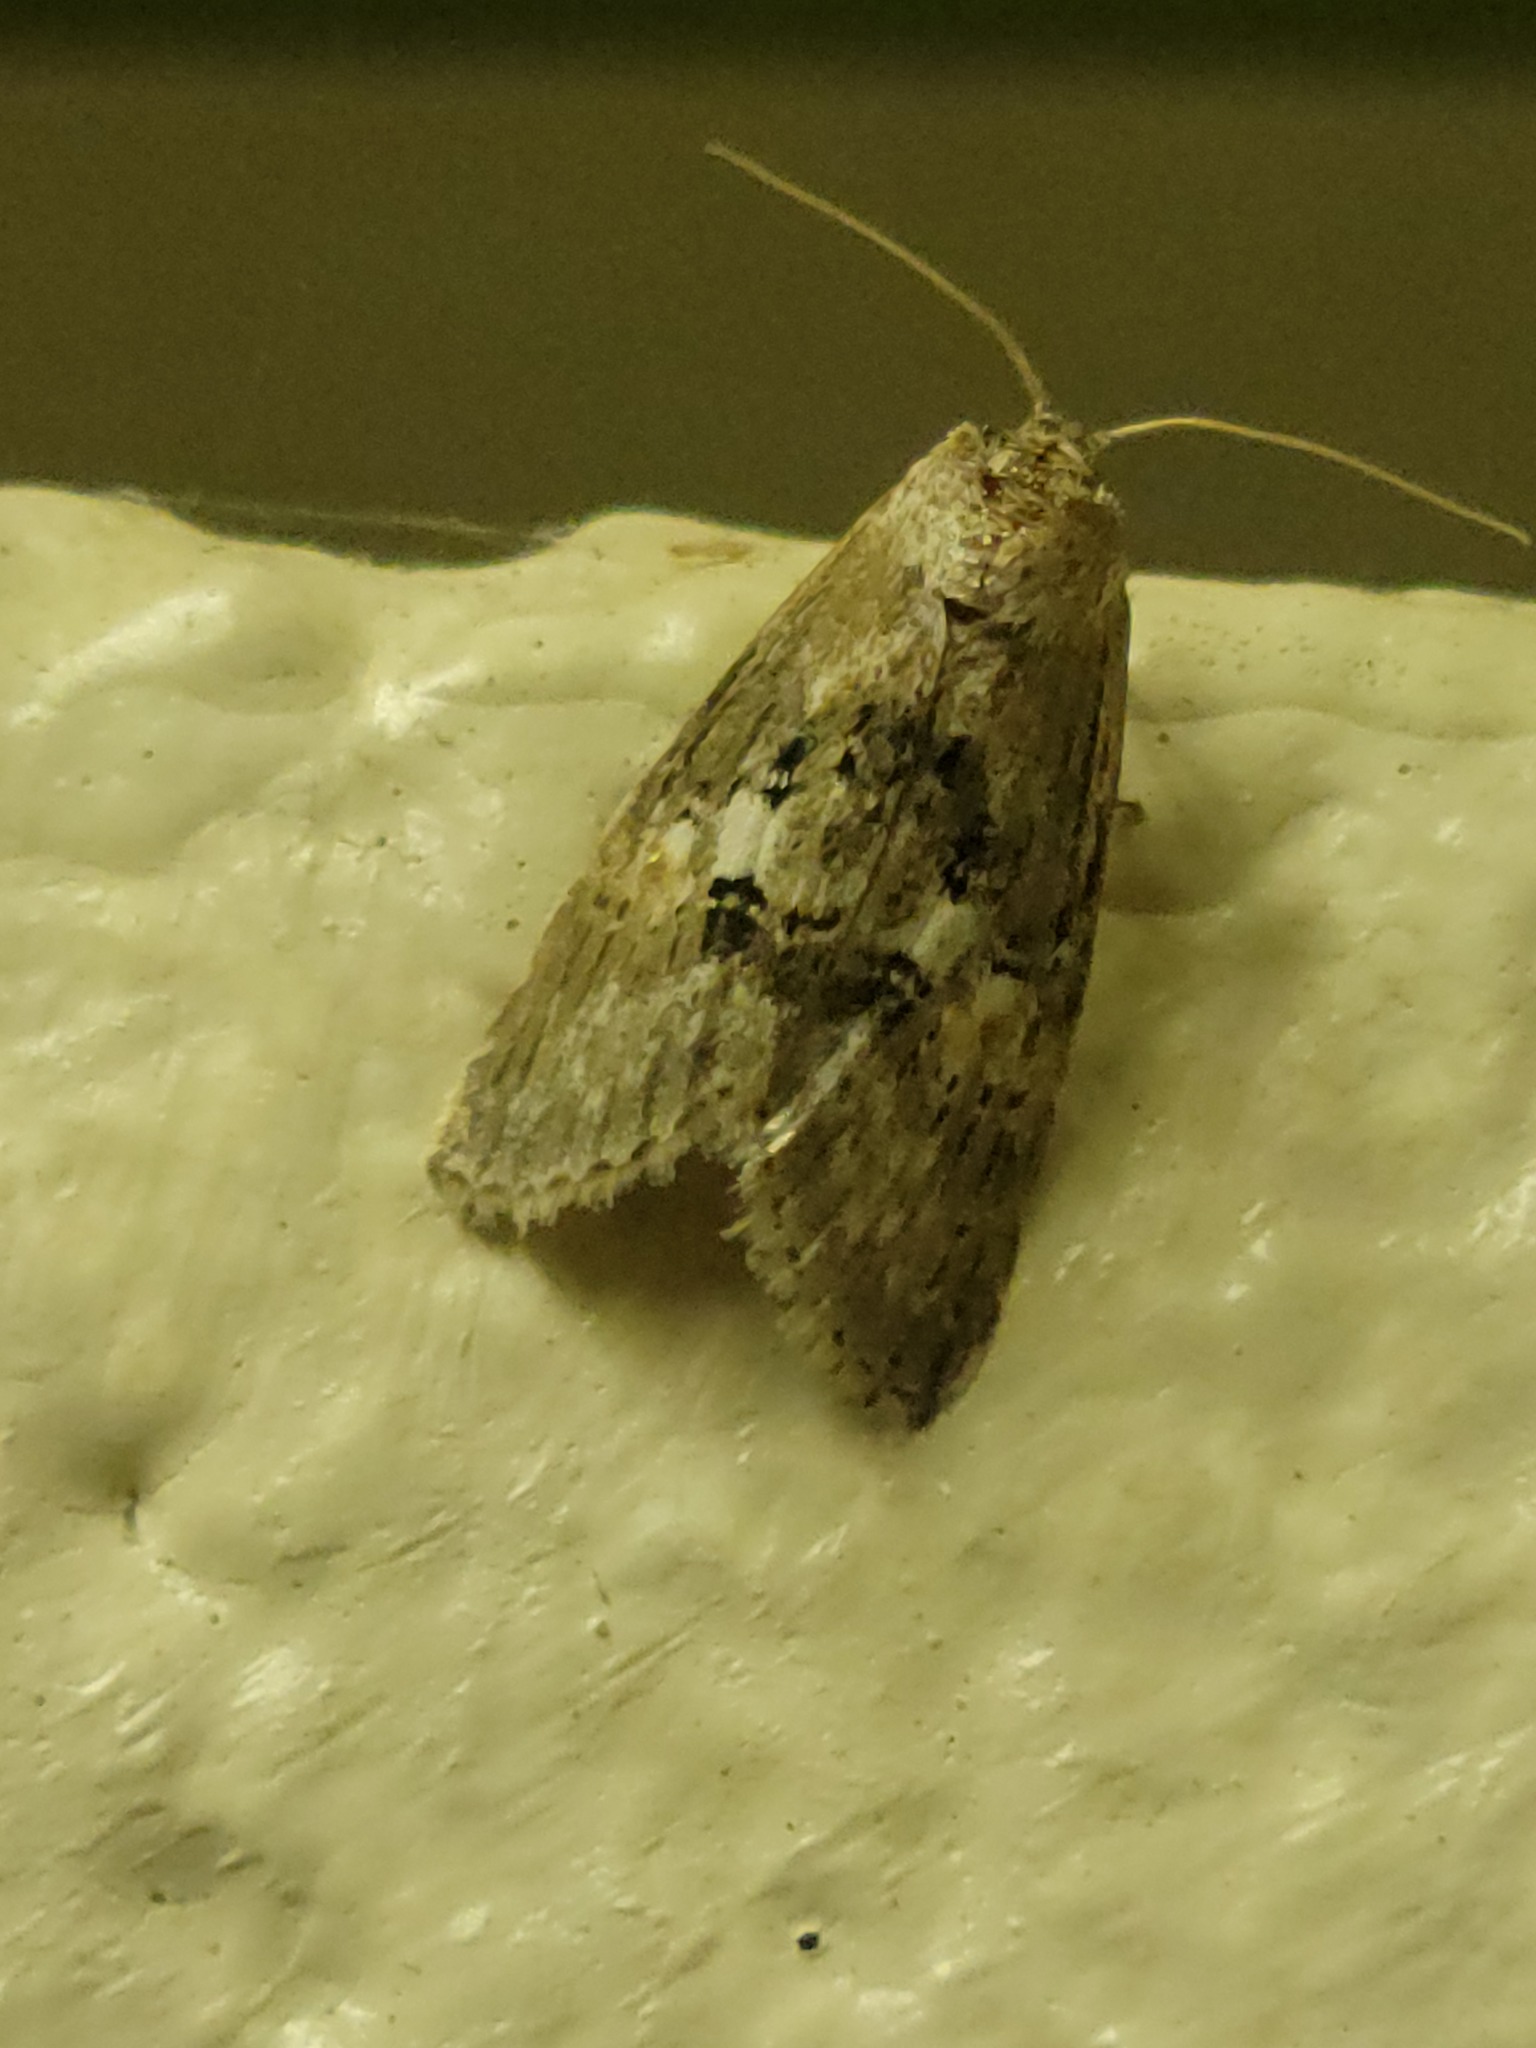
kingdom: Animalia
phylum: Arthropoda
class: Insecta
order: Lepidoptera
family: Noctuidae
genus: Cephalospargeta
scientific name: Cephalospargeta elongata
